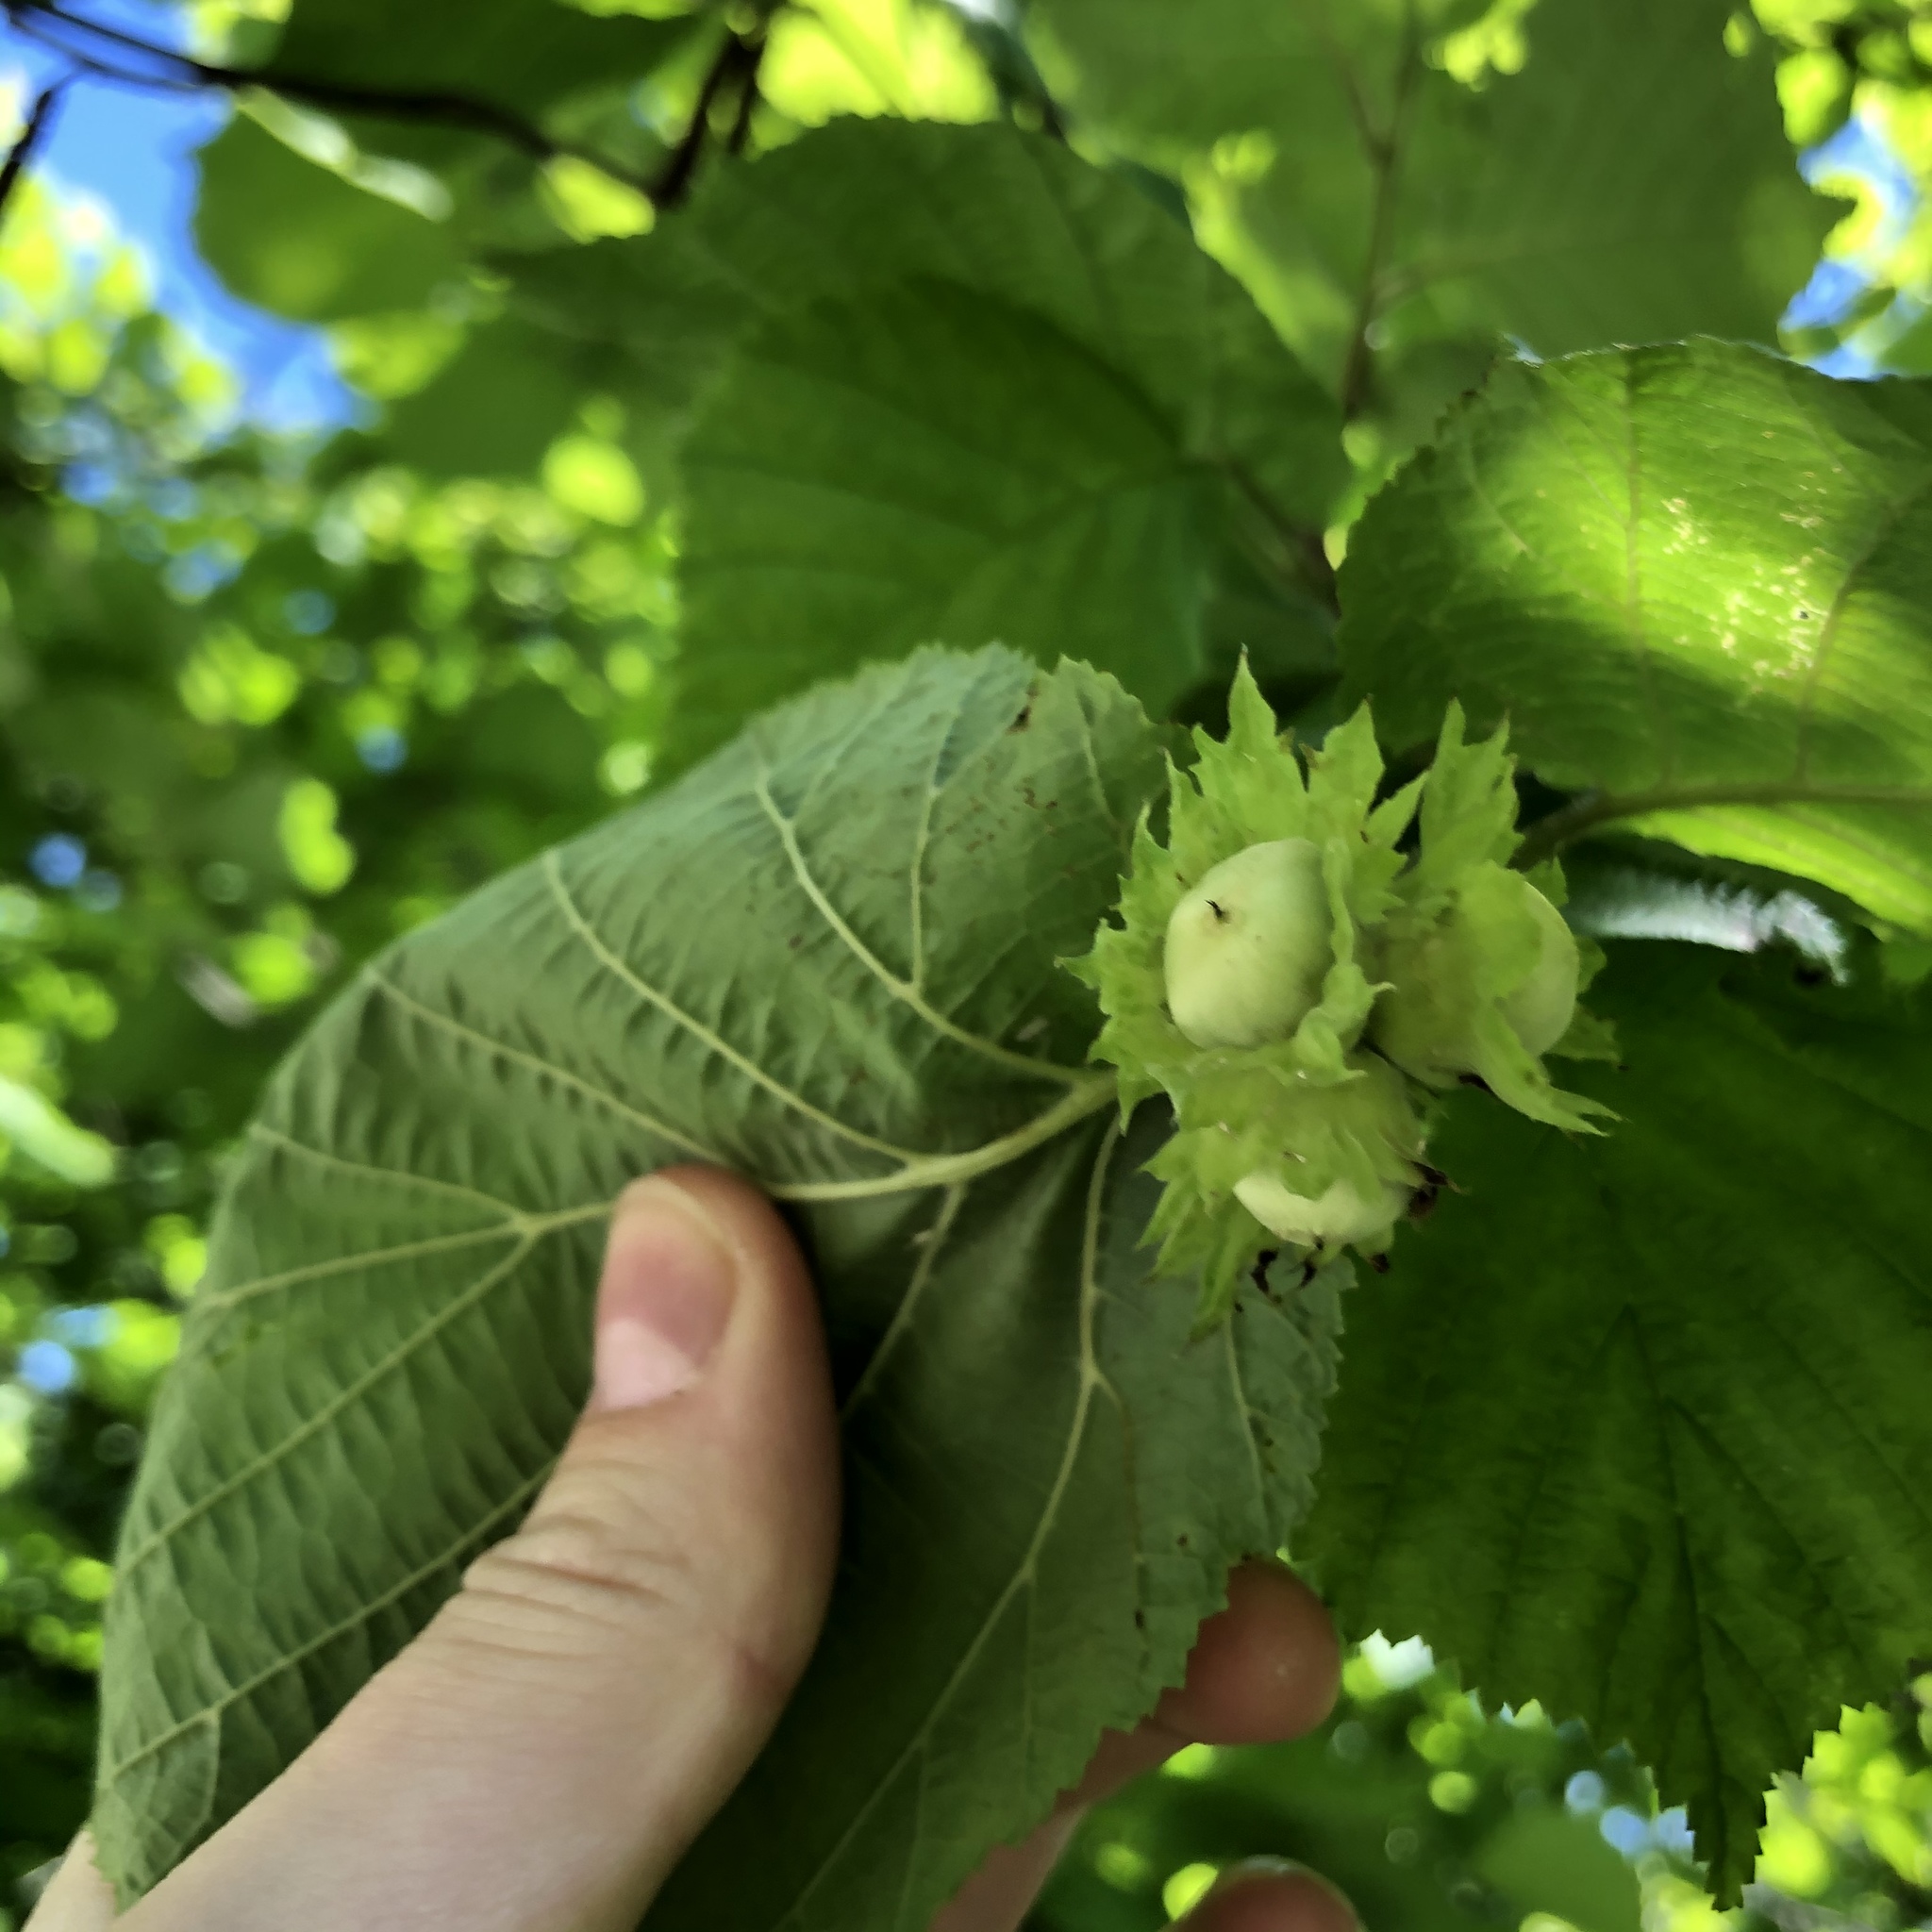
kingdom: Plantae
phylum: Tracheophyta
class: Magnoliopsida
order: Fagales
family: Betulaceae
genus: Corylus
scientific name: Corylus avellana
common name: European hazel
